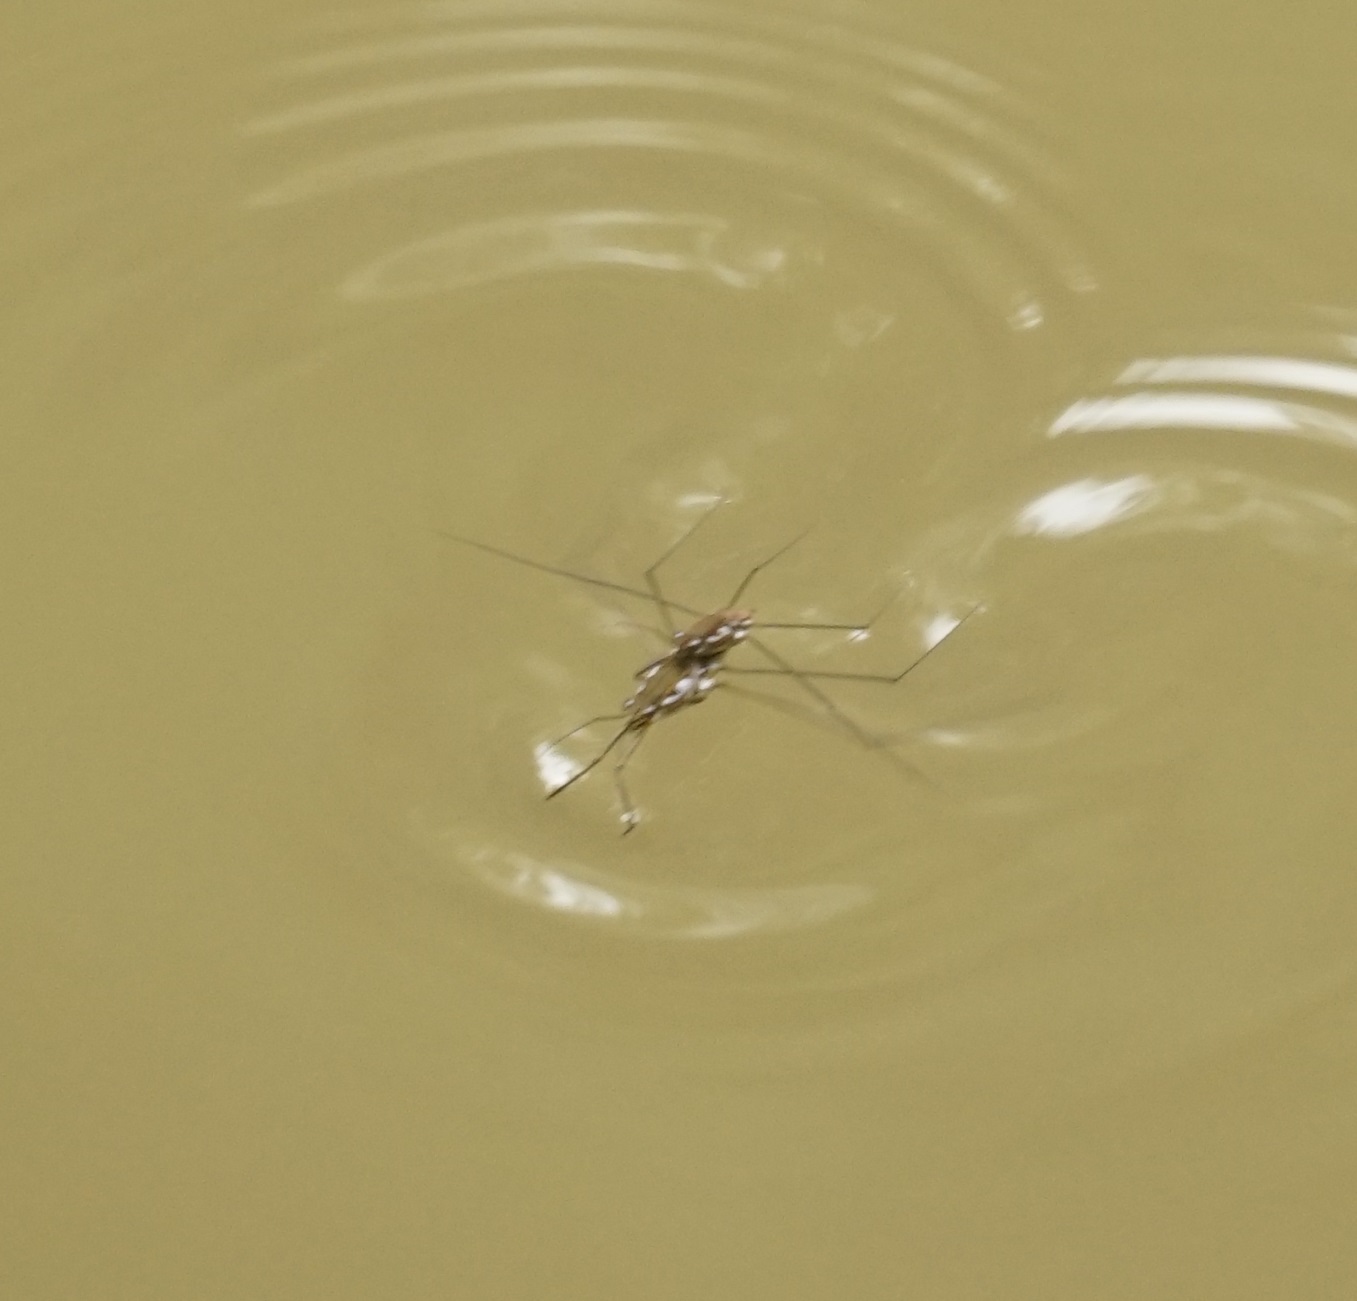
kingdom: Animalia
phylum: Arthropoda
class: Insecta
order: Hemiptera
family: Gerridae
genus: Tenagogerris
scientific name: Tenagogerris euphrosyne
